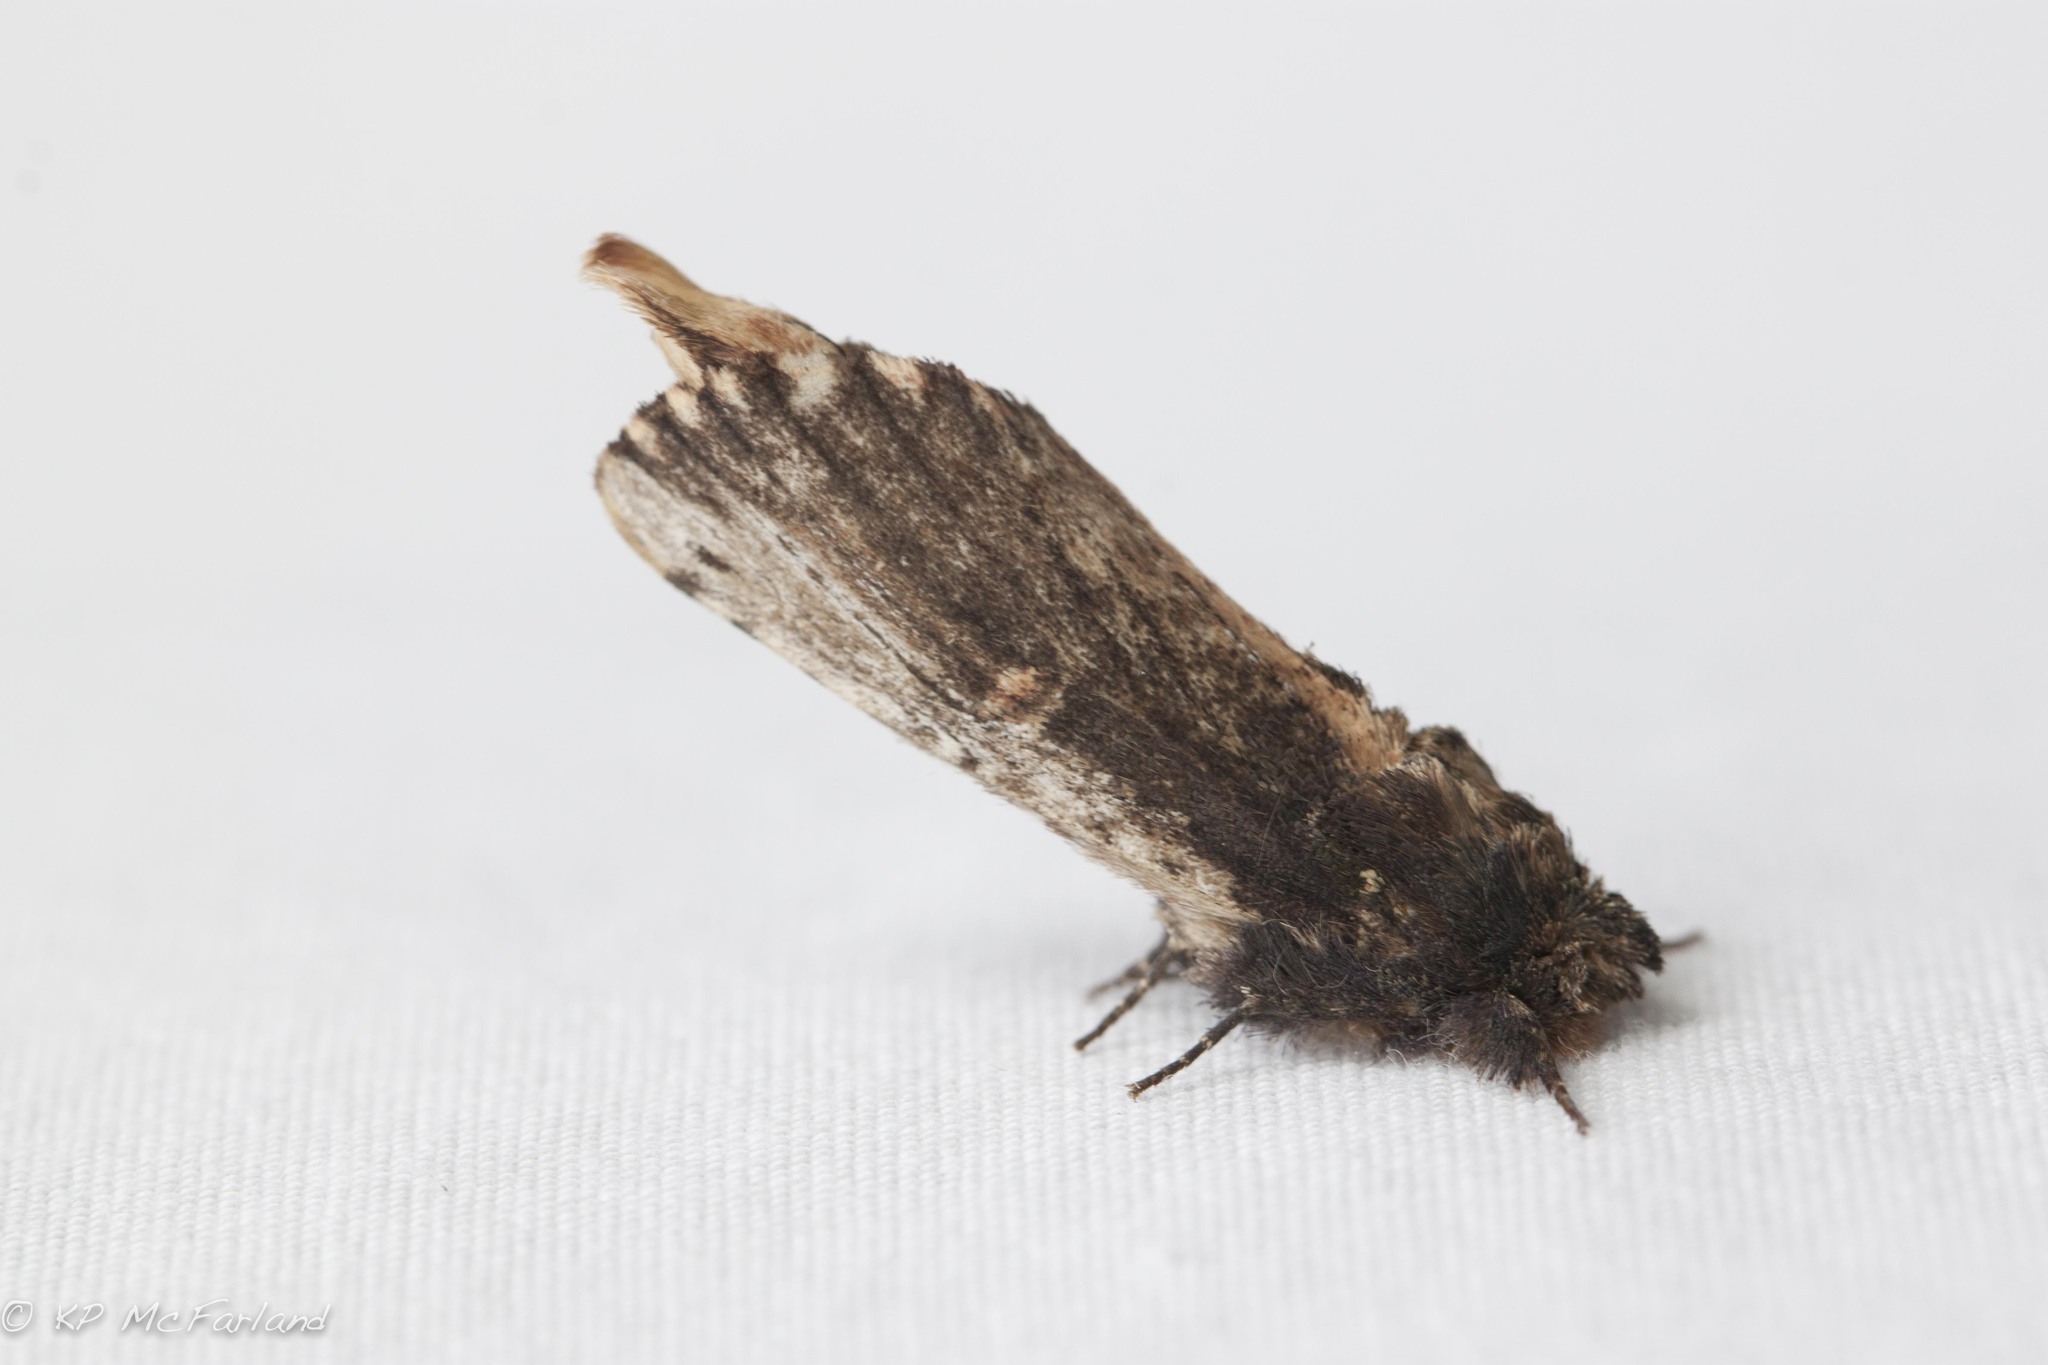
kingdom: Animalia
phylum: Arthropoda
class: Insecta
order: Lepidoptera
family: Notodontidae
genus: Schizura
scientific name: Schizura ipomaeae
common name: Morning-glory prominent
